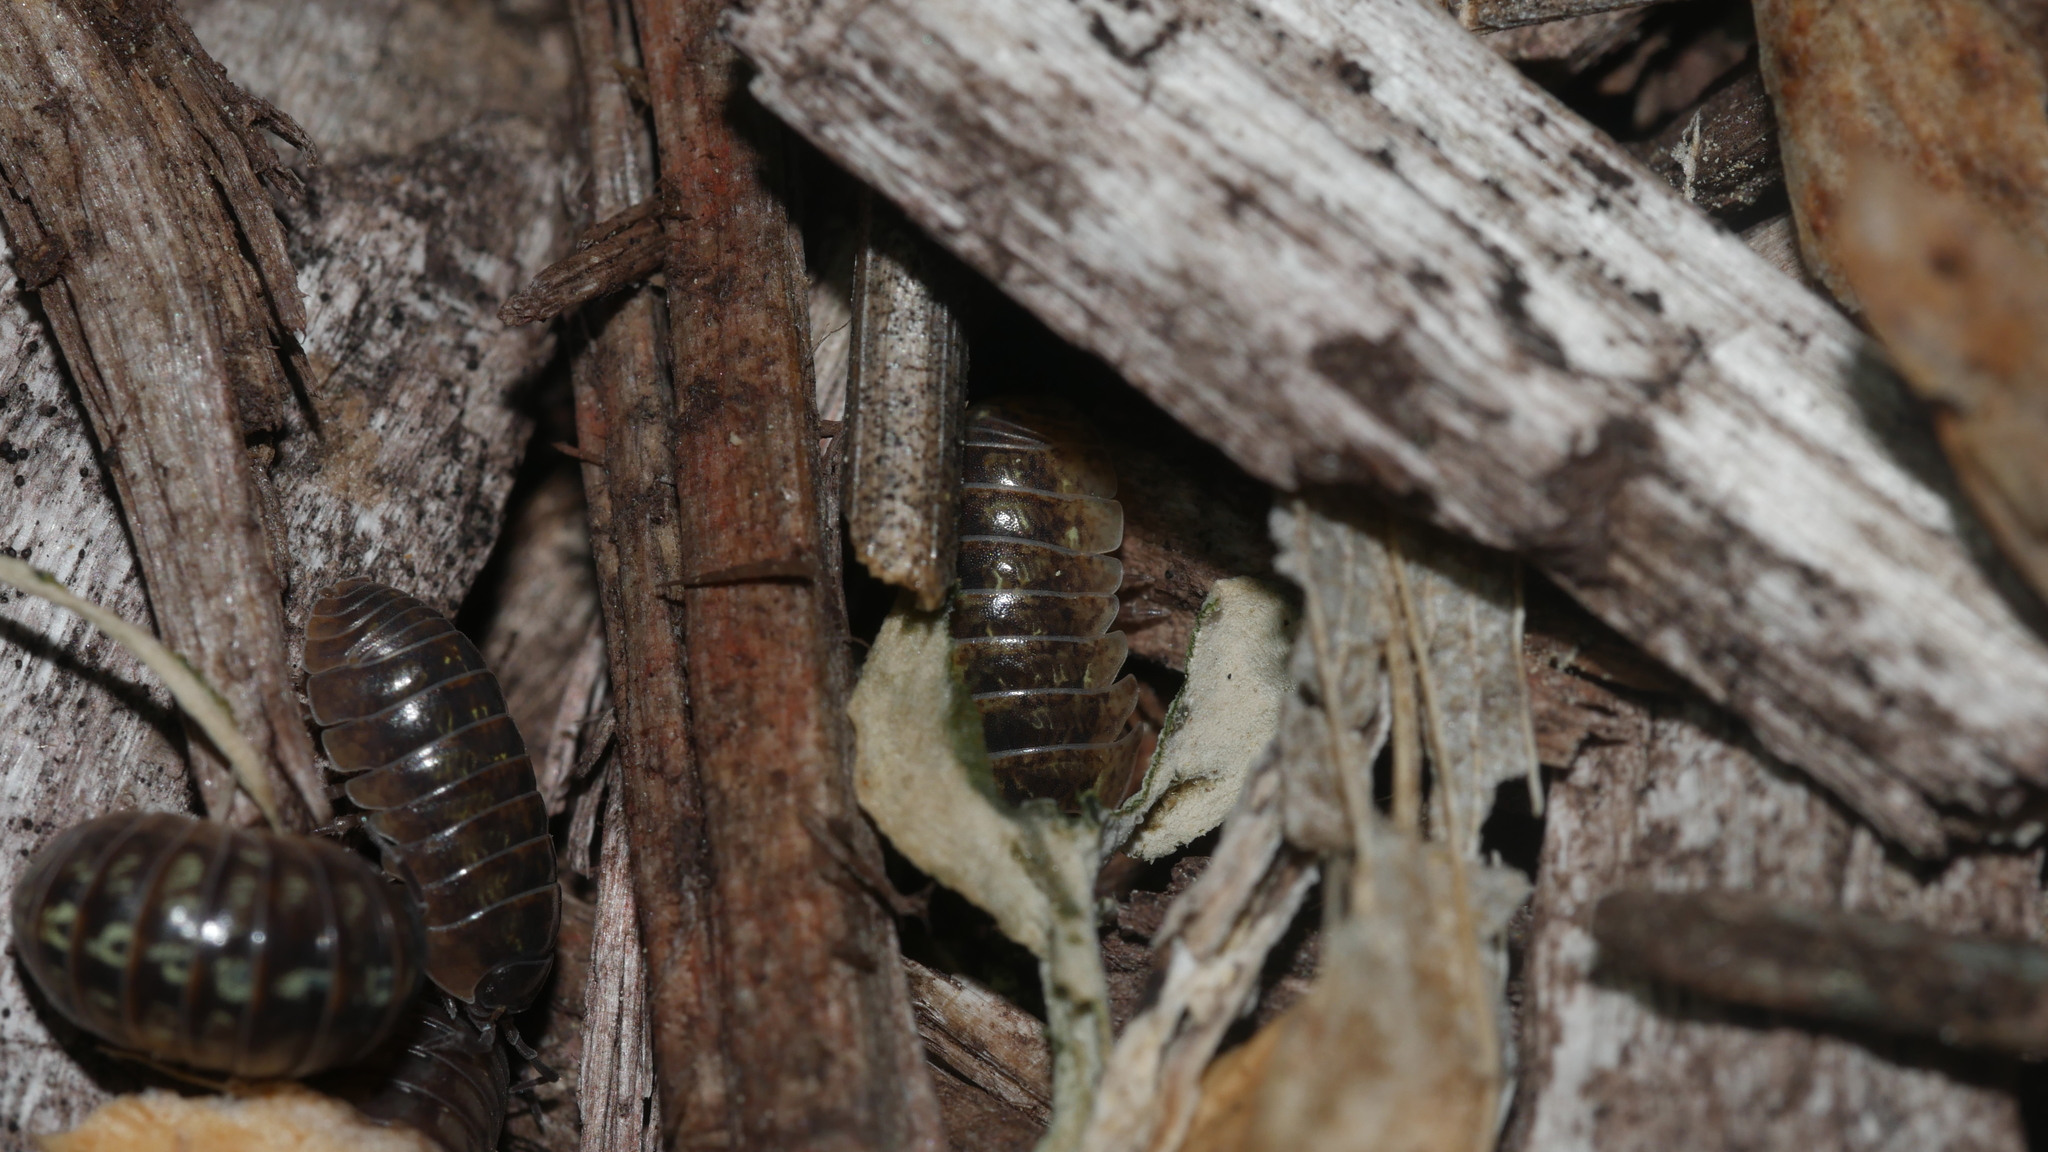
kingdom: Animalia
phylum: Arthropoda
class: Malacostraca
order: Isopoda
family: Armadillidiidae
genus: Armadillidium
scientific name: Armadillidium vulgare
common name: Common pill woodlouse
